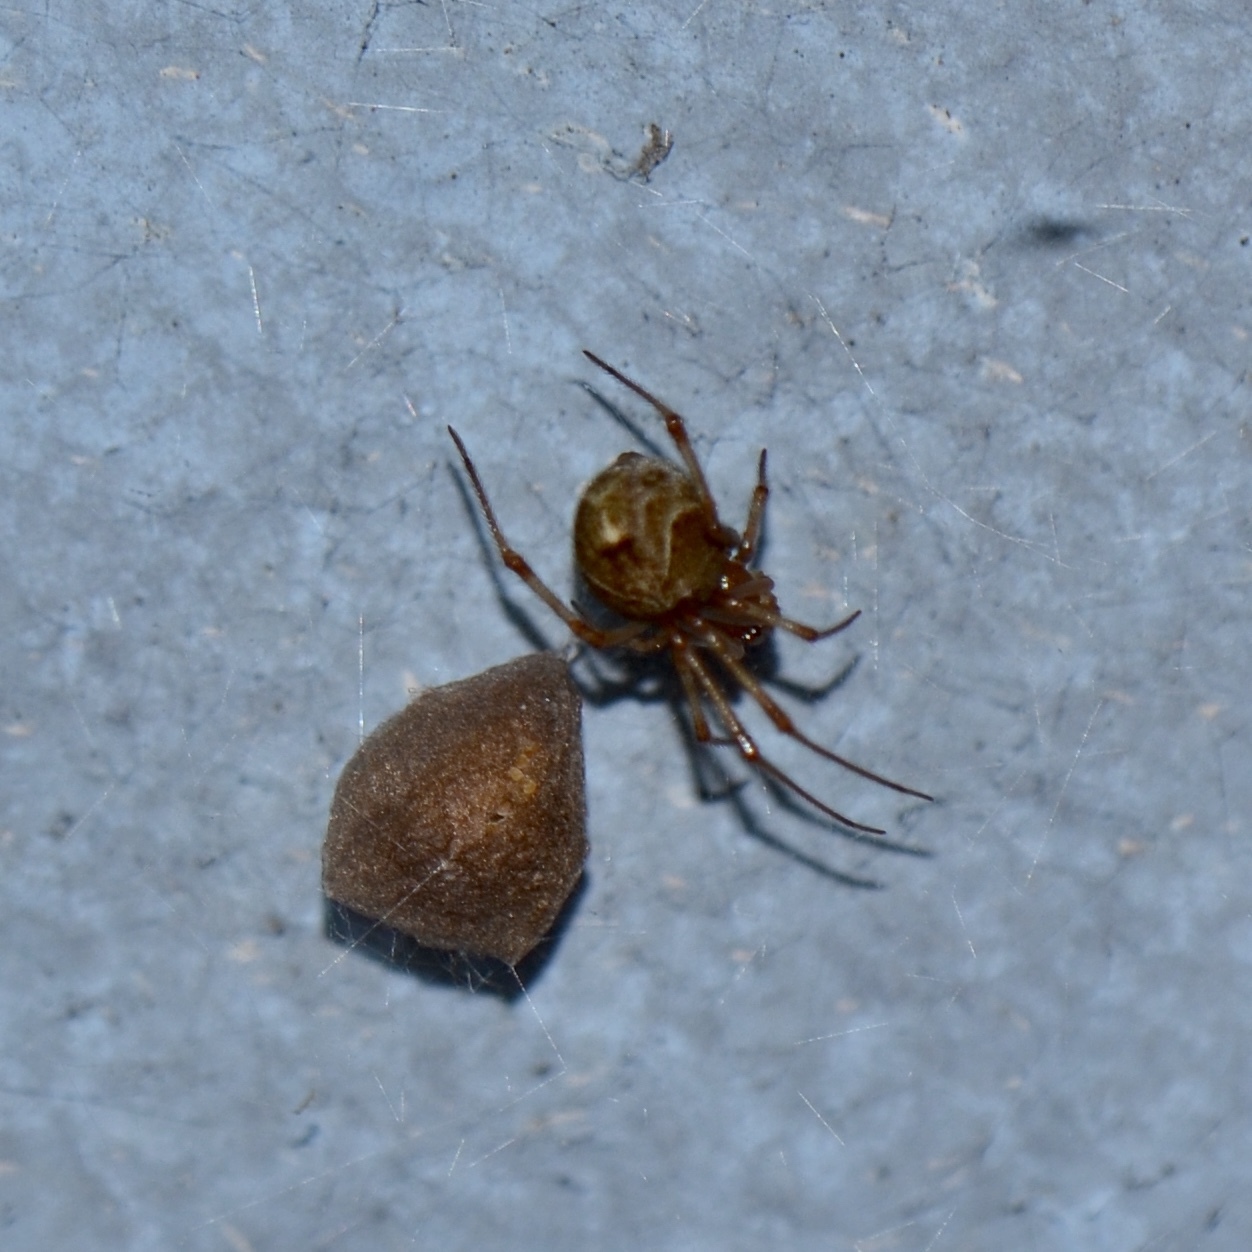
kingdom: Animalia
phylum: Arthropoda
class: Arachnida
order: Araneae
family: Theridiidae
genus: Parasteatoda
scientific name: Parasteatoda tepidariorum
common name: Common house spider
